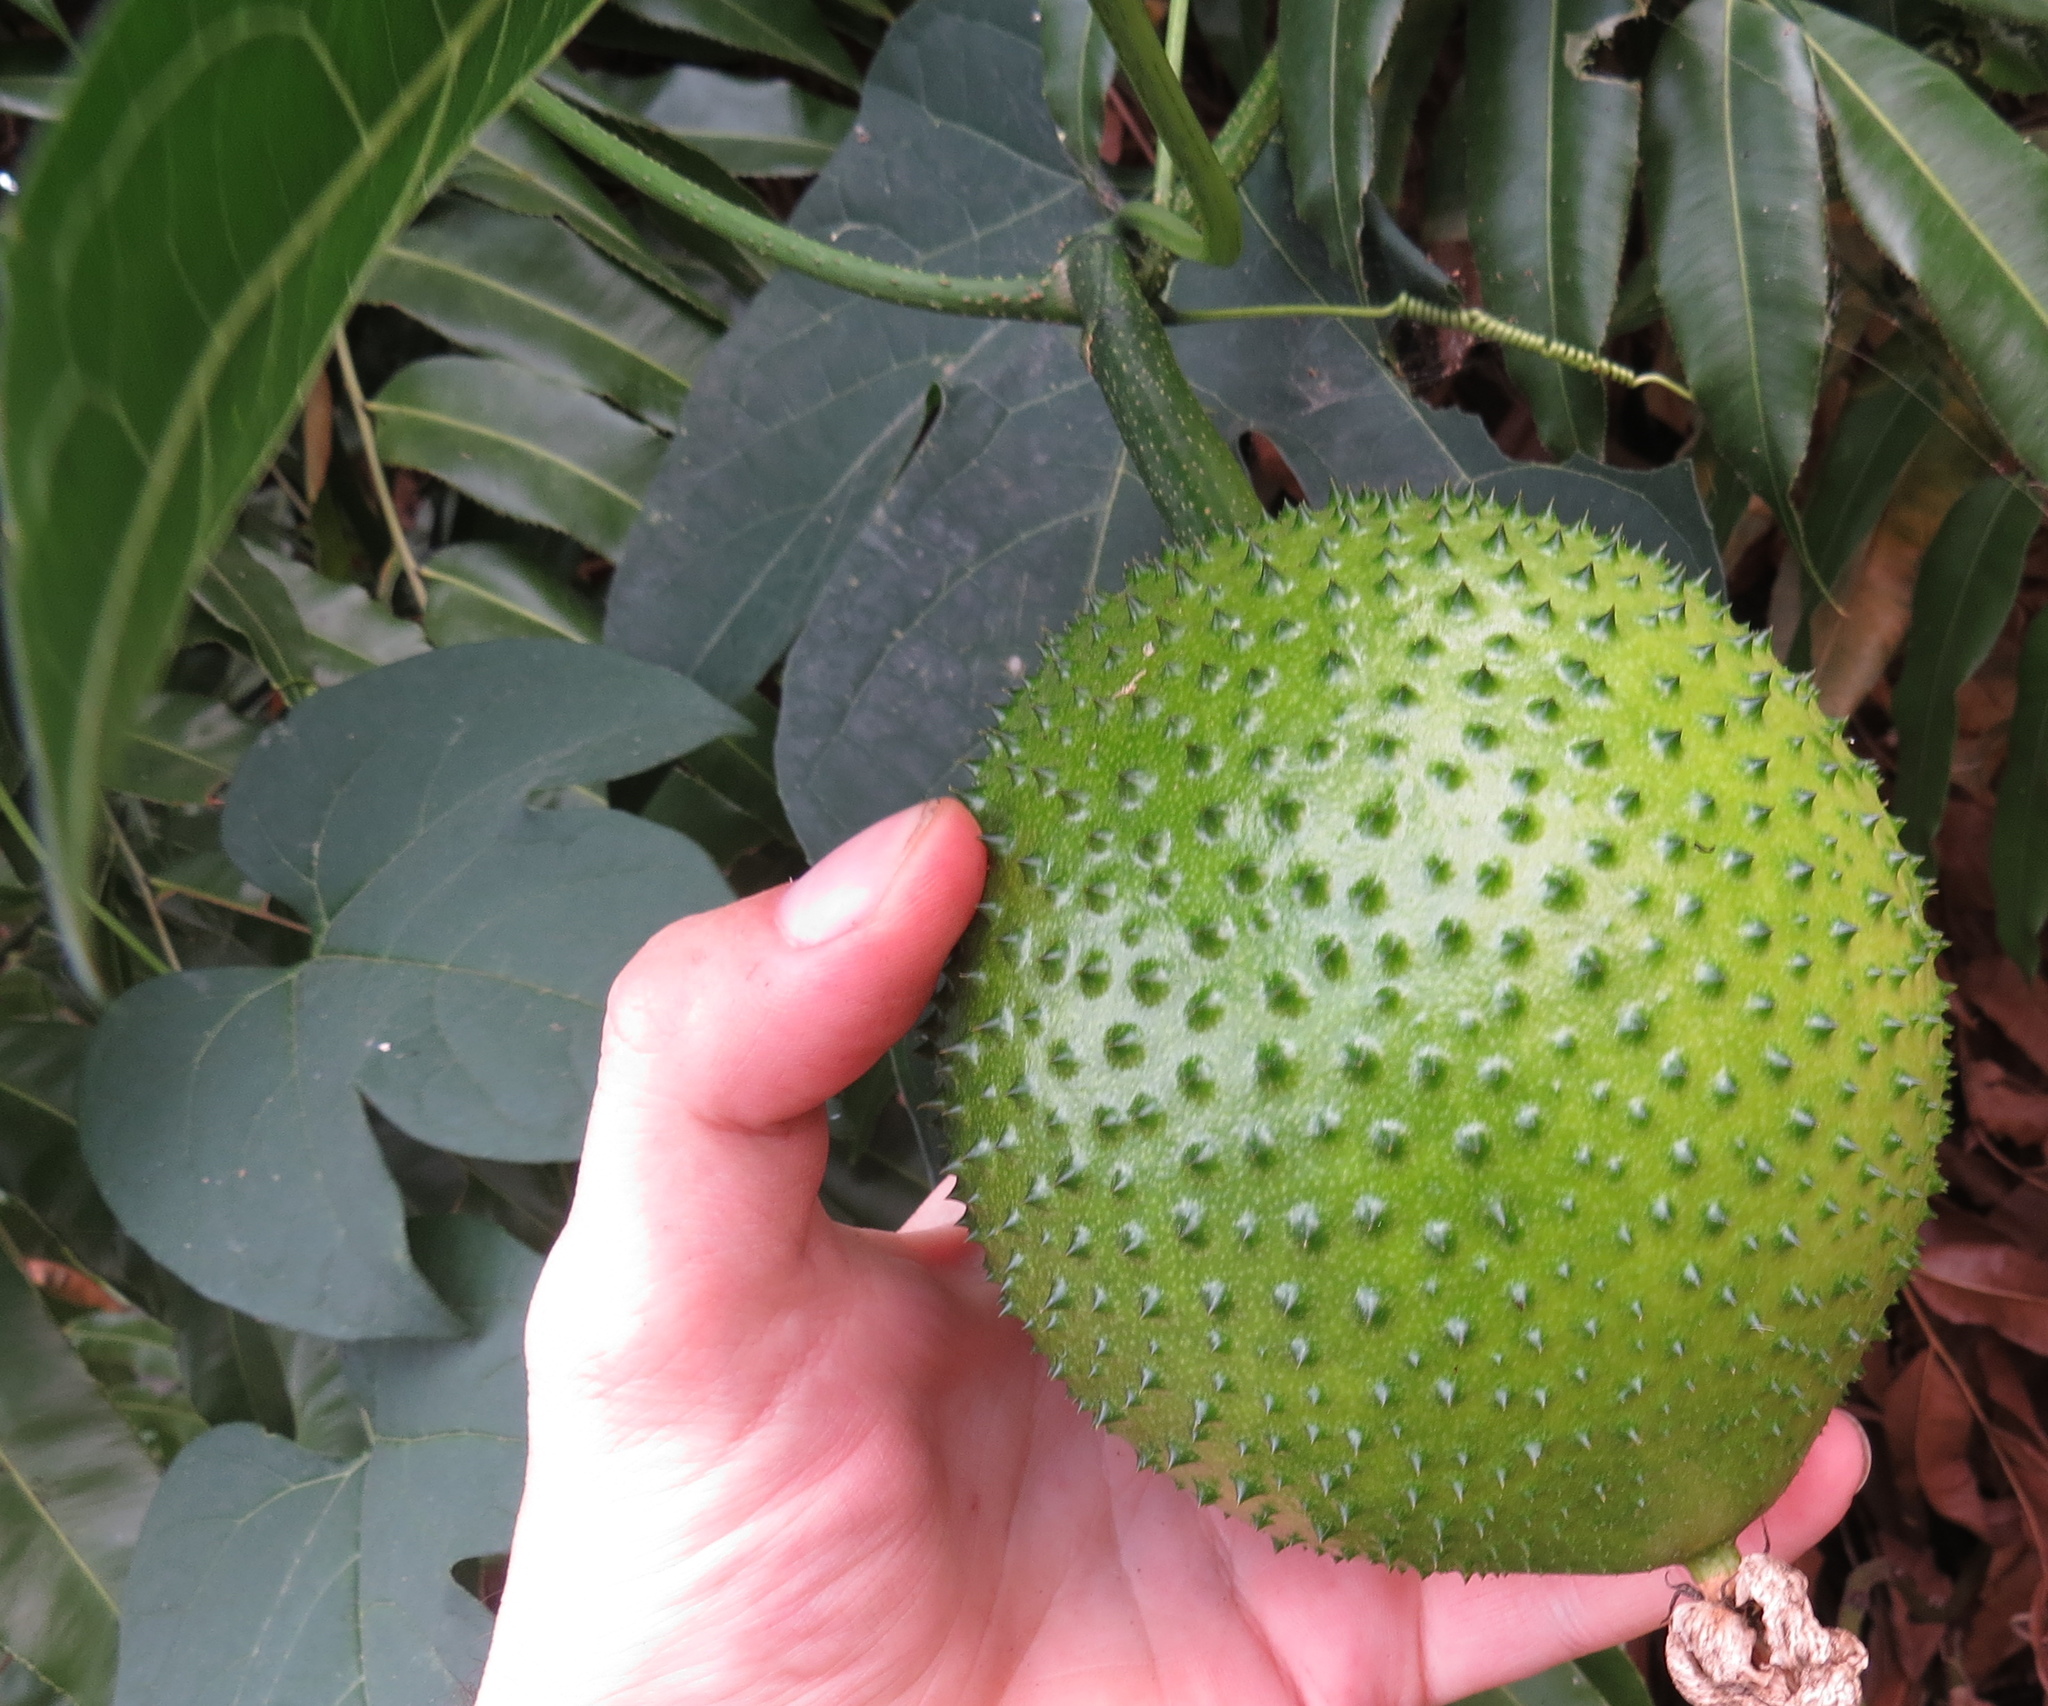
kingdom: Plantae
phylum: Tracheophyta
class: Magnoliopsida
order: Cucurbitales
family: Cucurbitaceae
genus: Momordica
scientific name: Momordica cochinchinensis
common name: Chinese bitter-cucumber
